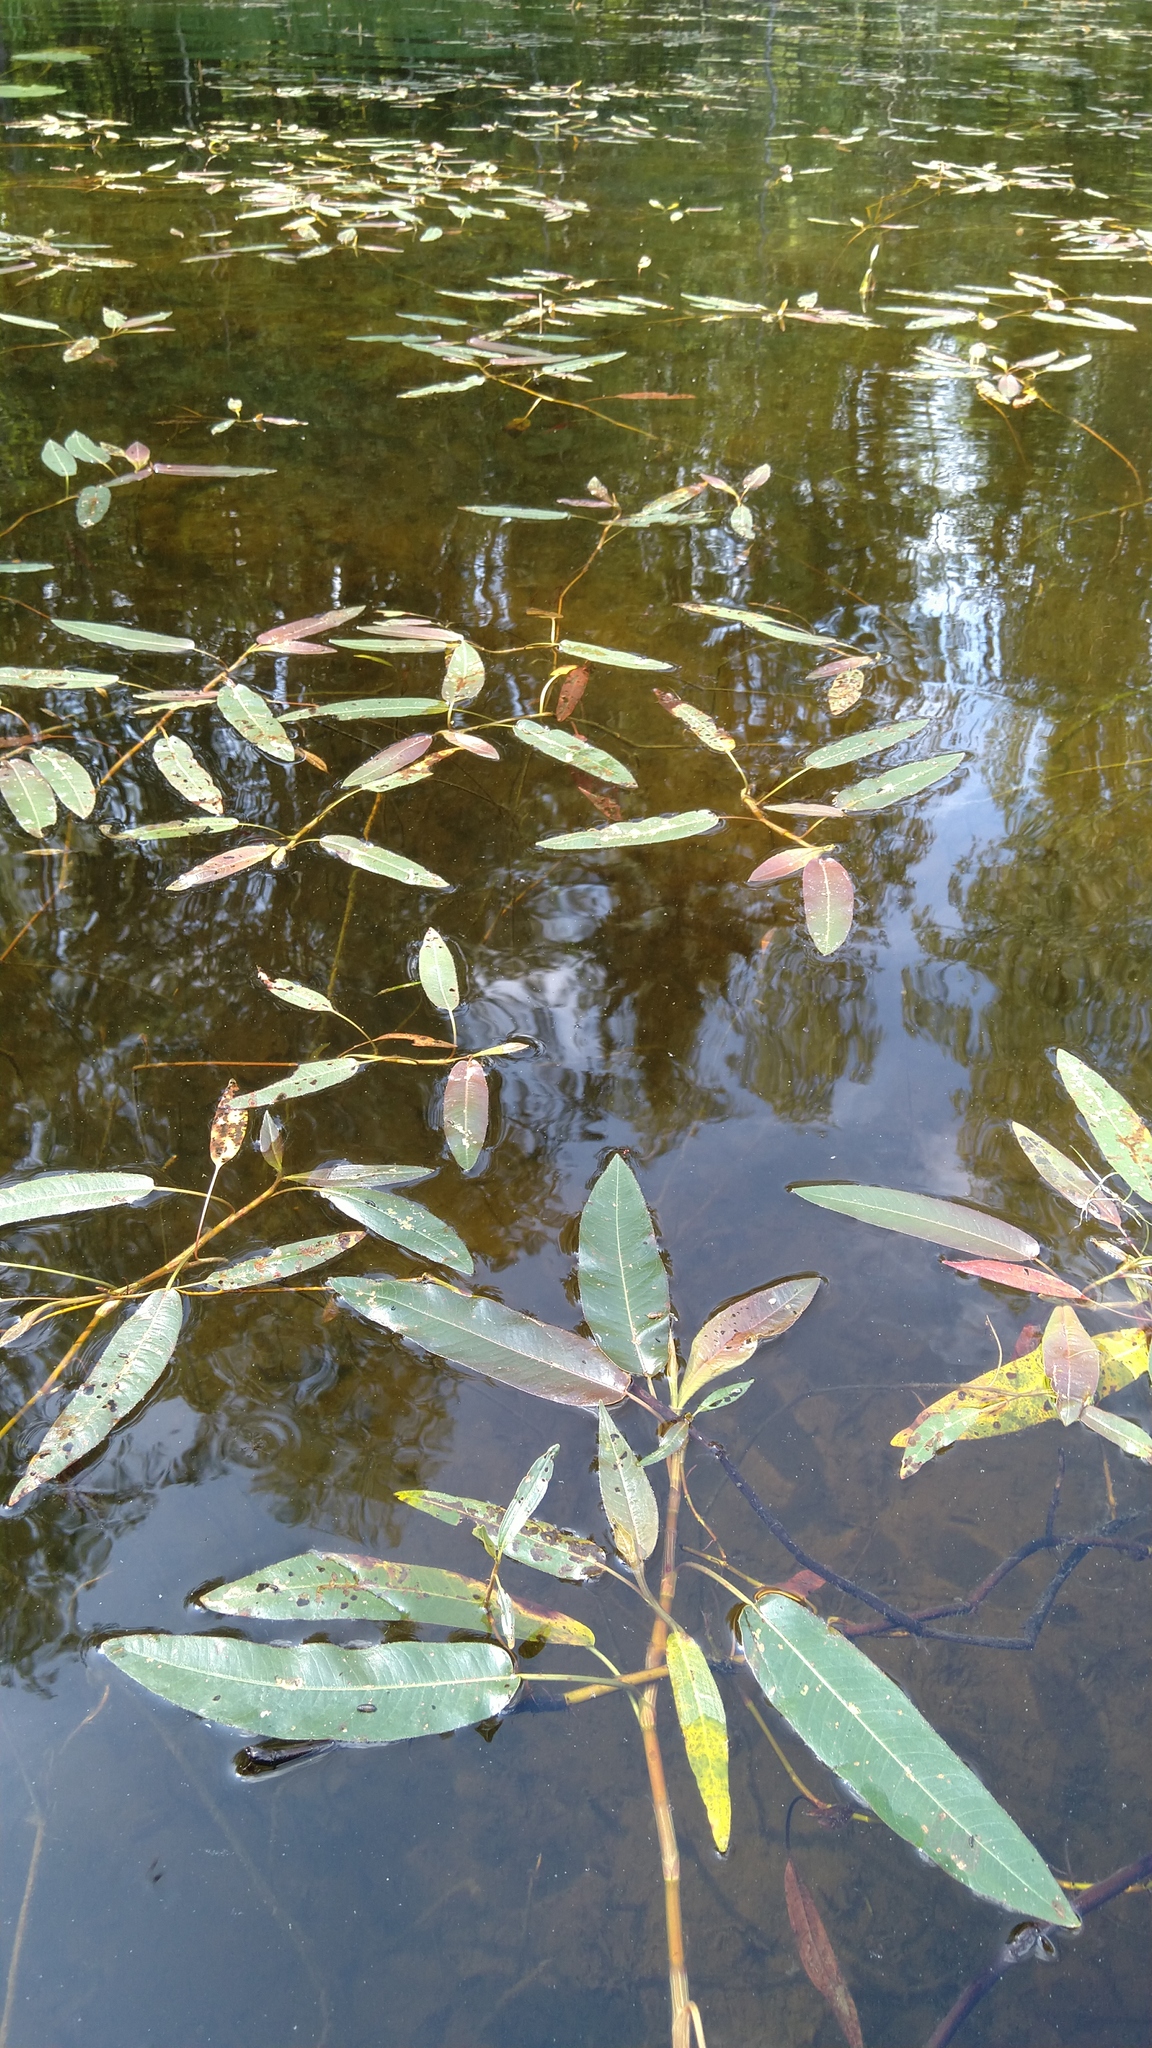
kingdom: Plantae
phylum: Tracheophyta
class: Magnoliopsida
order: Caryophyllales
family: Polygonaceae
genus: Persicaria
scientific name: Persicaria amphibia
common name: Amphibious bistort
